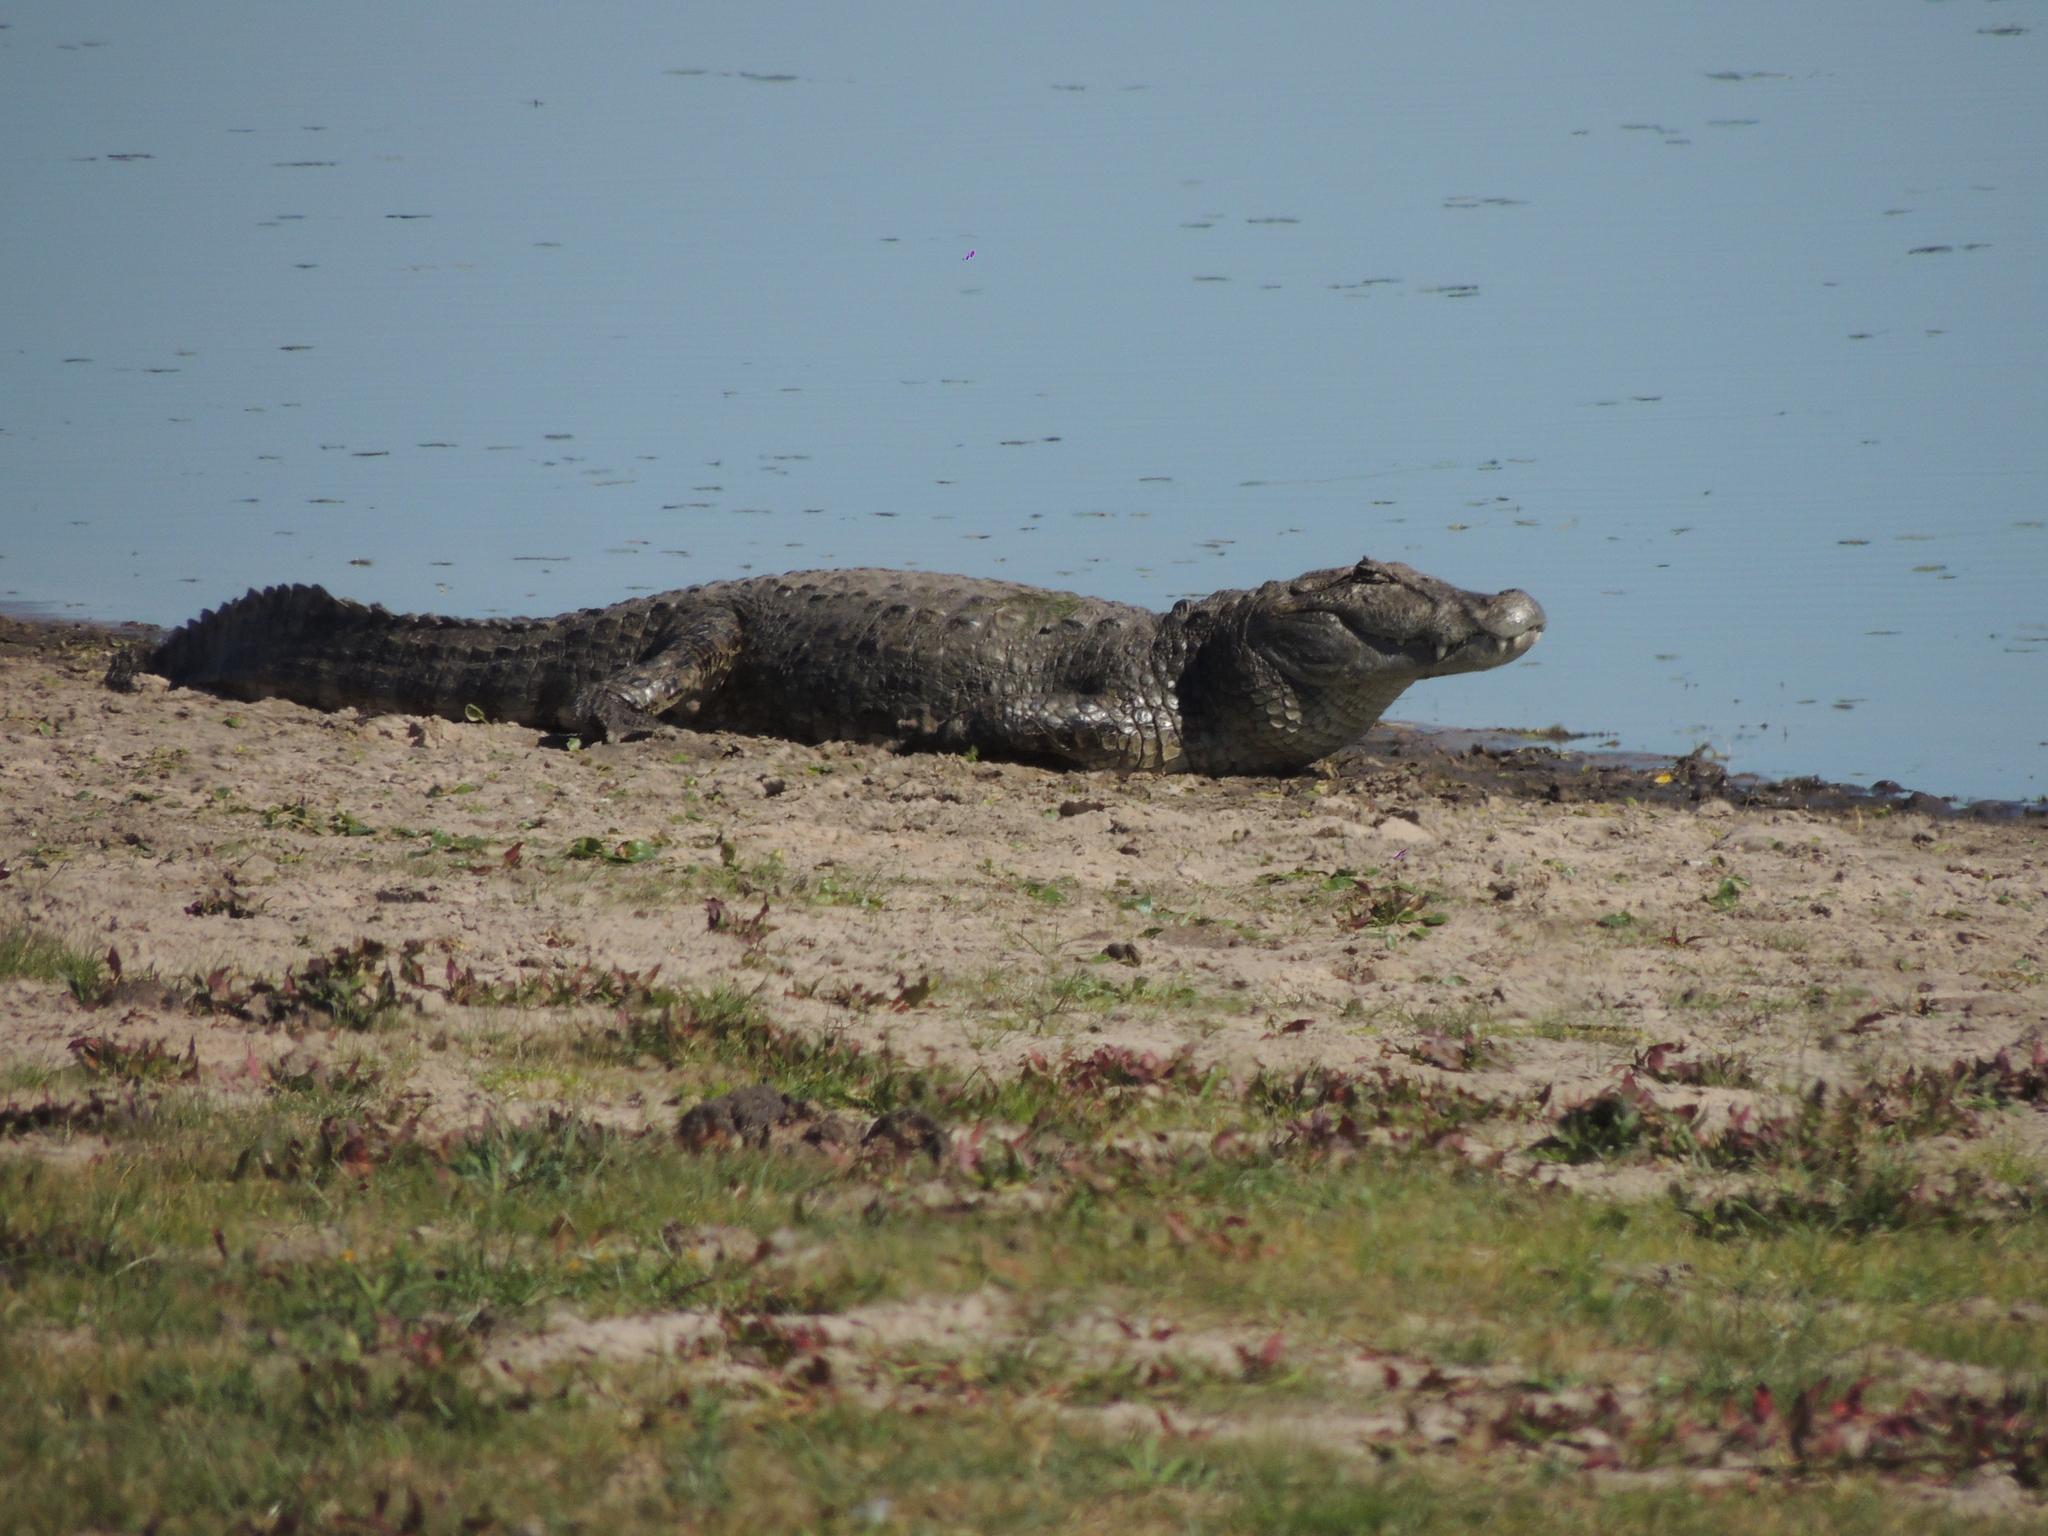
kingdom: Animalia
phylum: Chordata
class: Crocodylia
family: Alligatoridae
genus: Caiman
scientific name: Caiman latirostris
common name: Broad-snouted caiman
